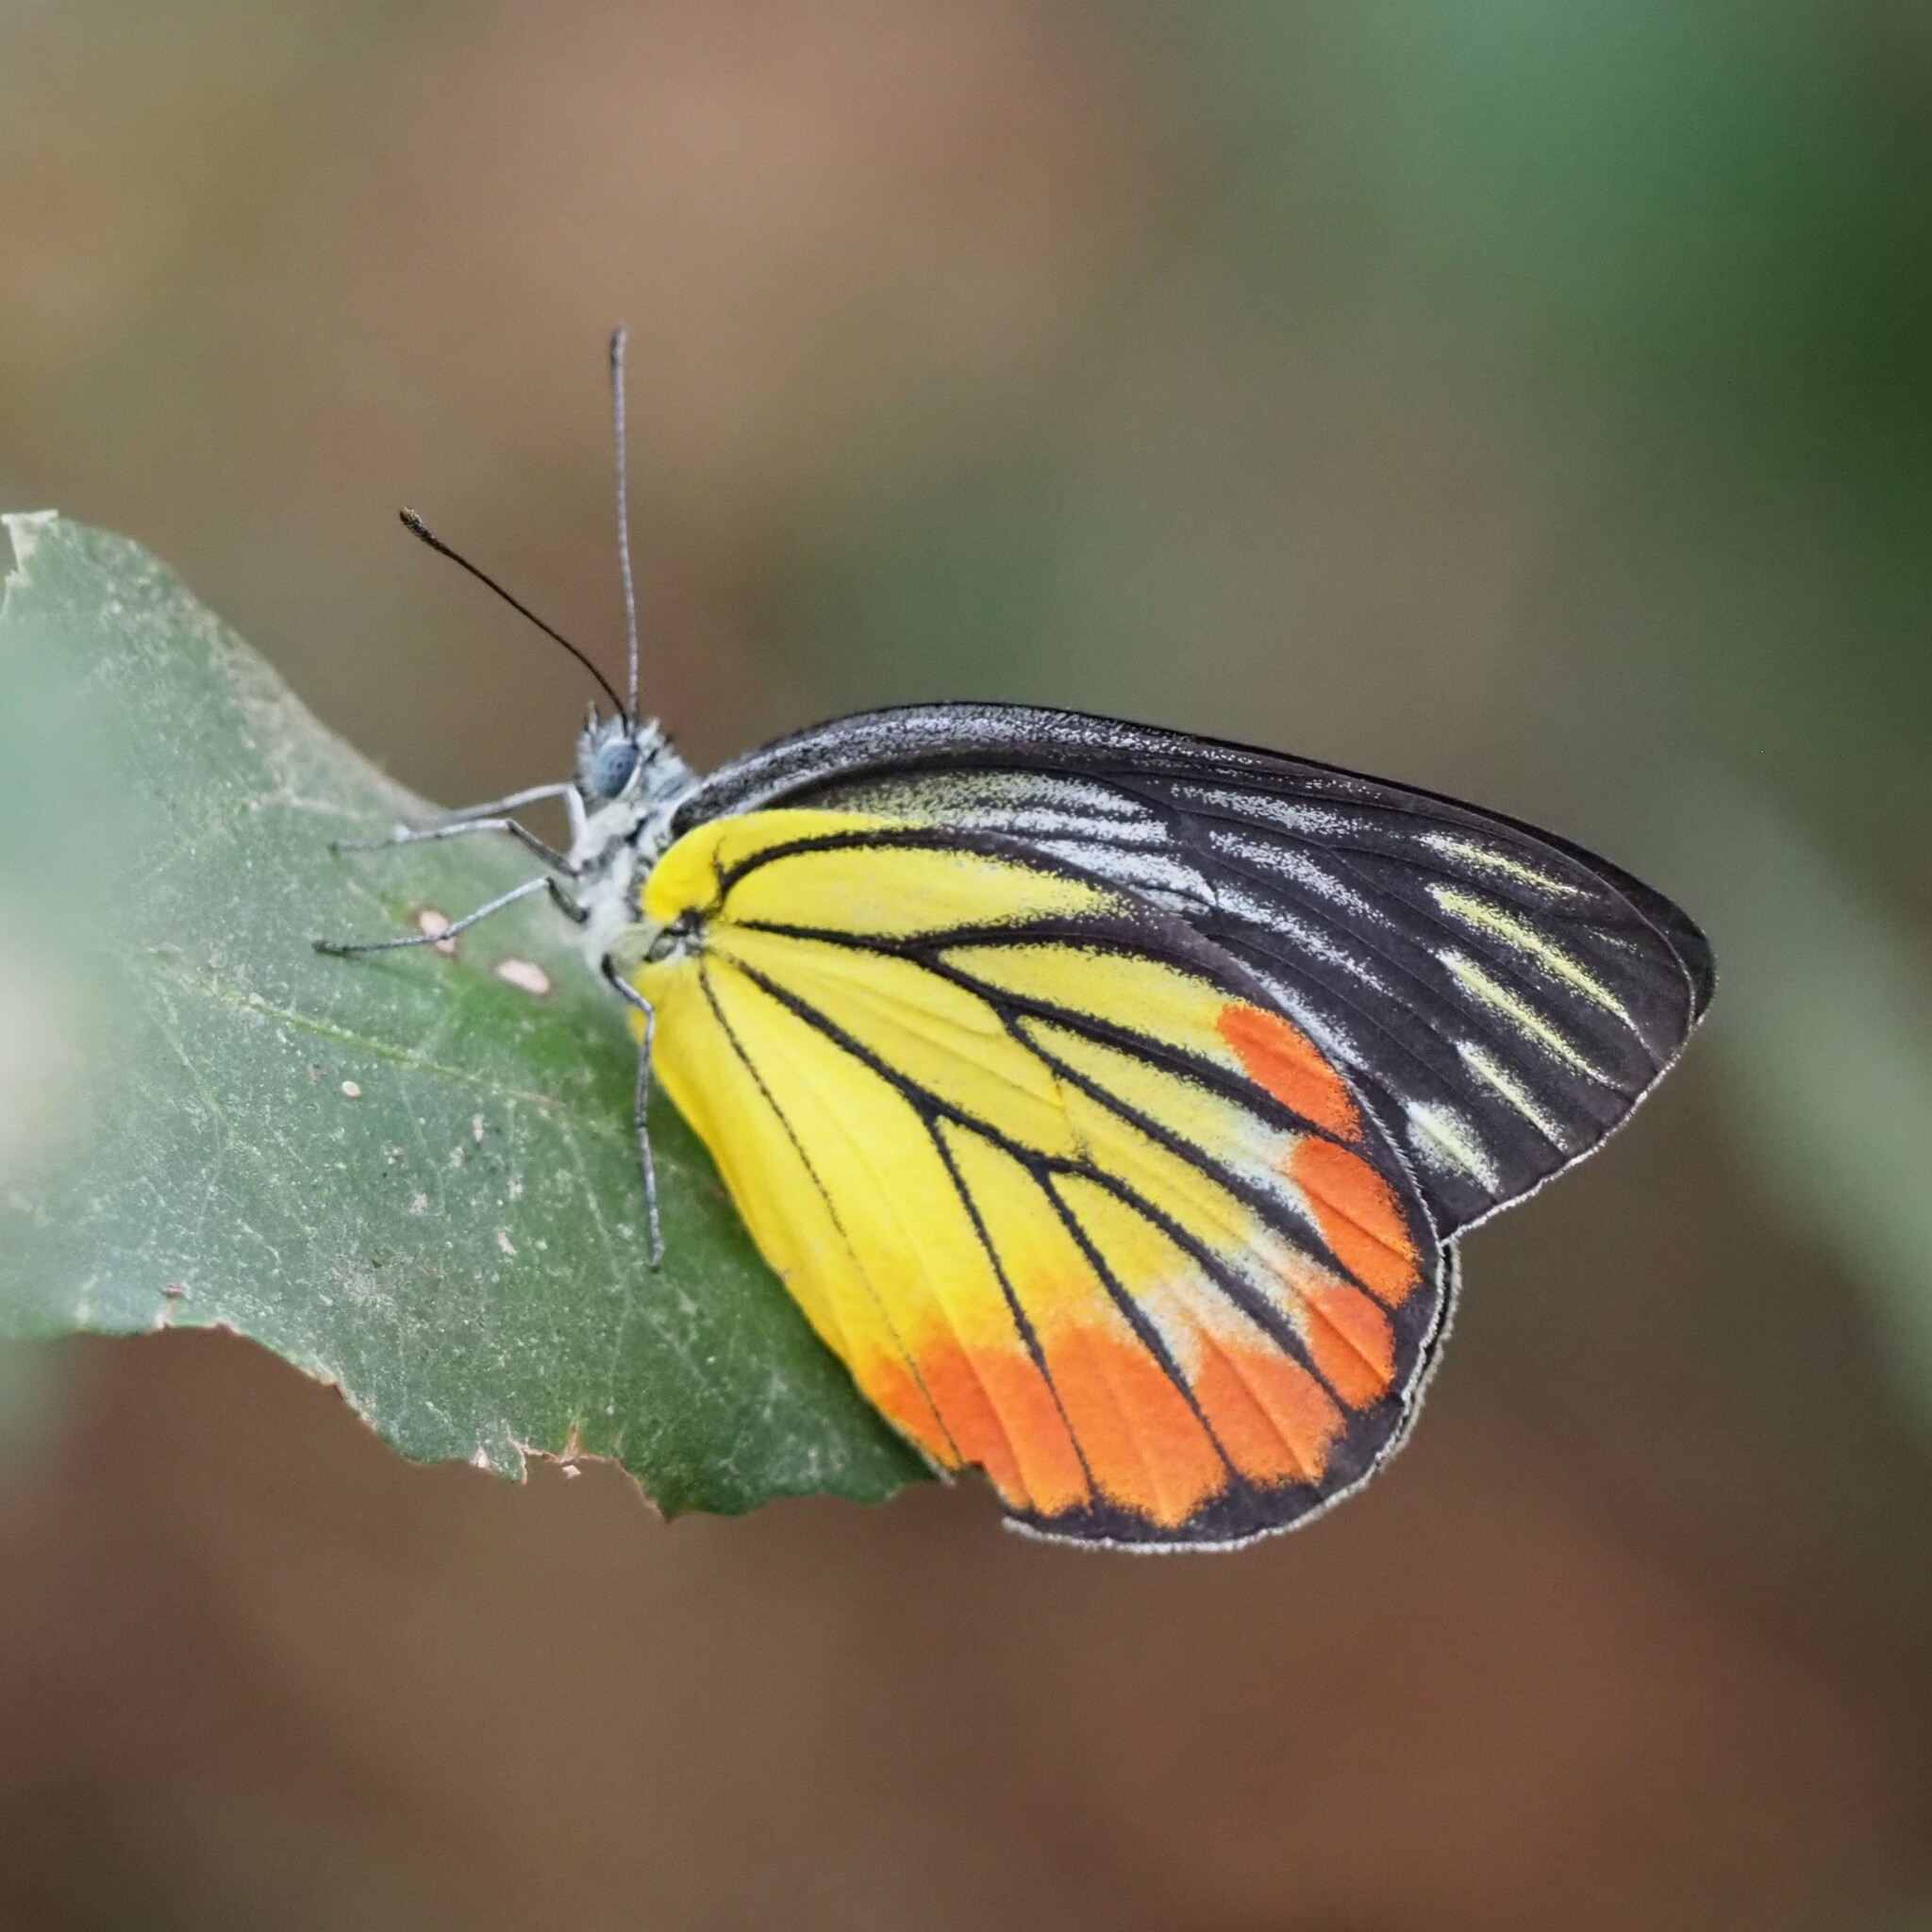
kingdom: Animalia
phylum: Arthropoda
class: Insecta
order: Lepidoptera
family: Pieridae
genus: Delias
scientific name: Delias hyparete
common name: Painted jezebel
